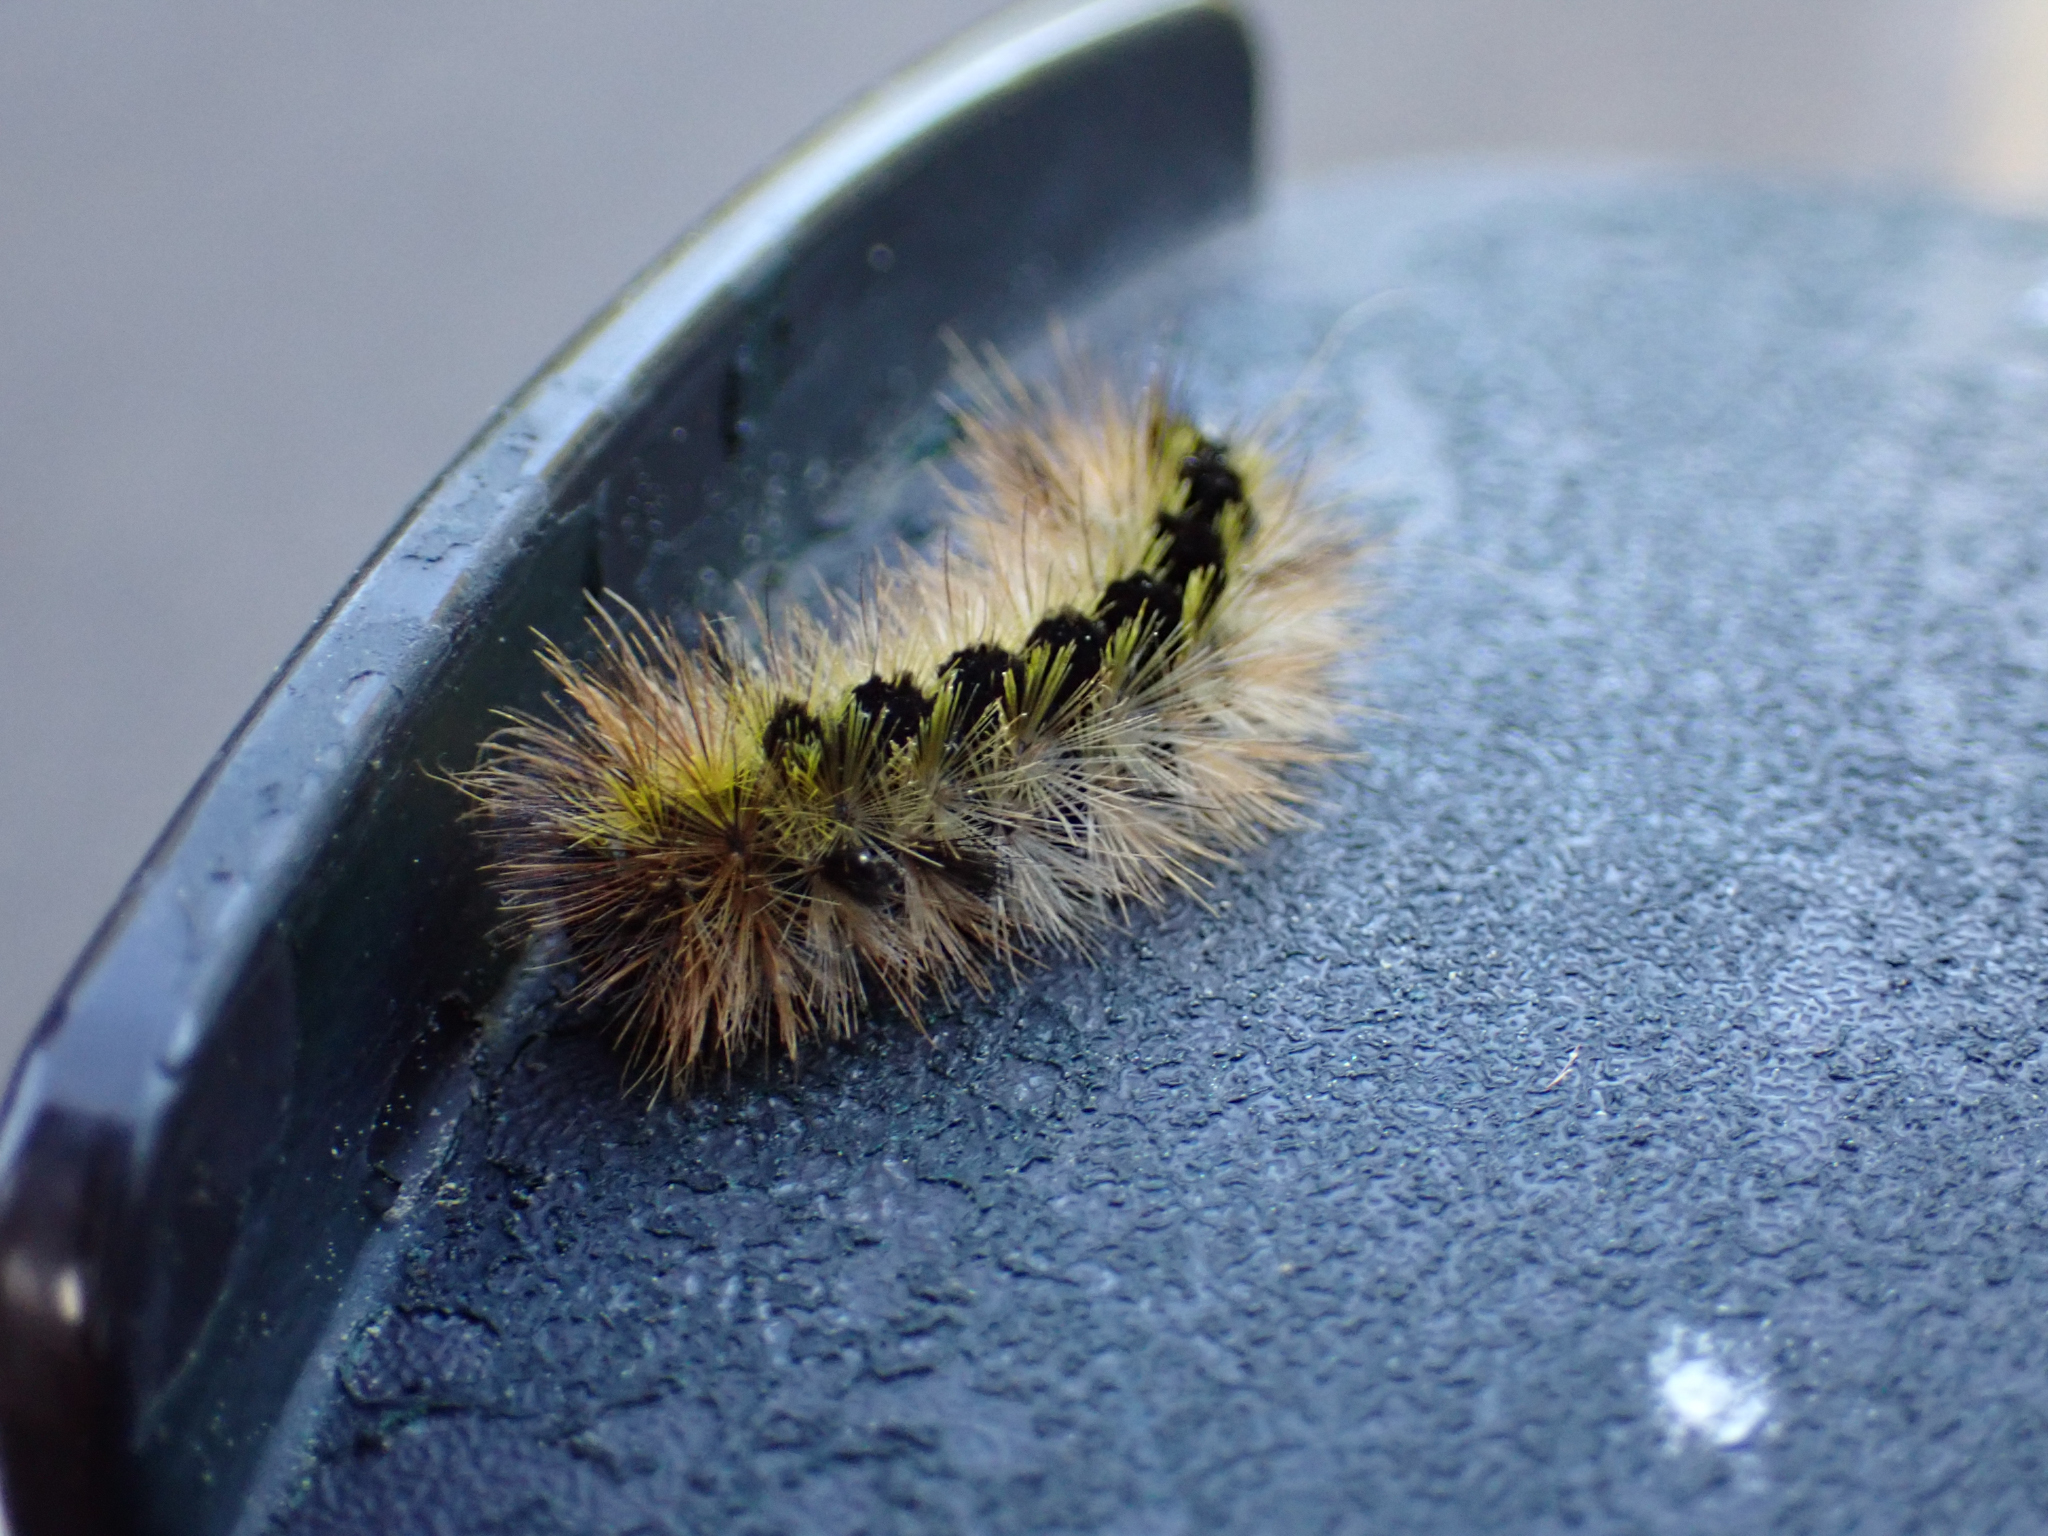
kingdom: Animalia
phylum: Arthropoda
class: Insecta
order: Lepidoptera
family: Erebidae
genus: Lophocampa
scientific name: Lophocampa argentata
